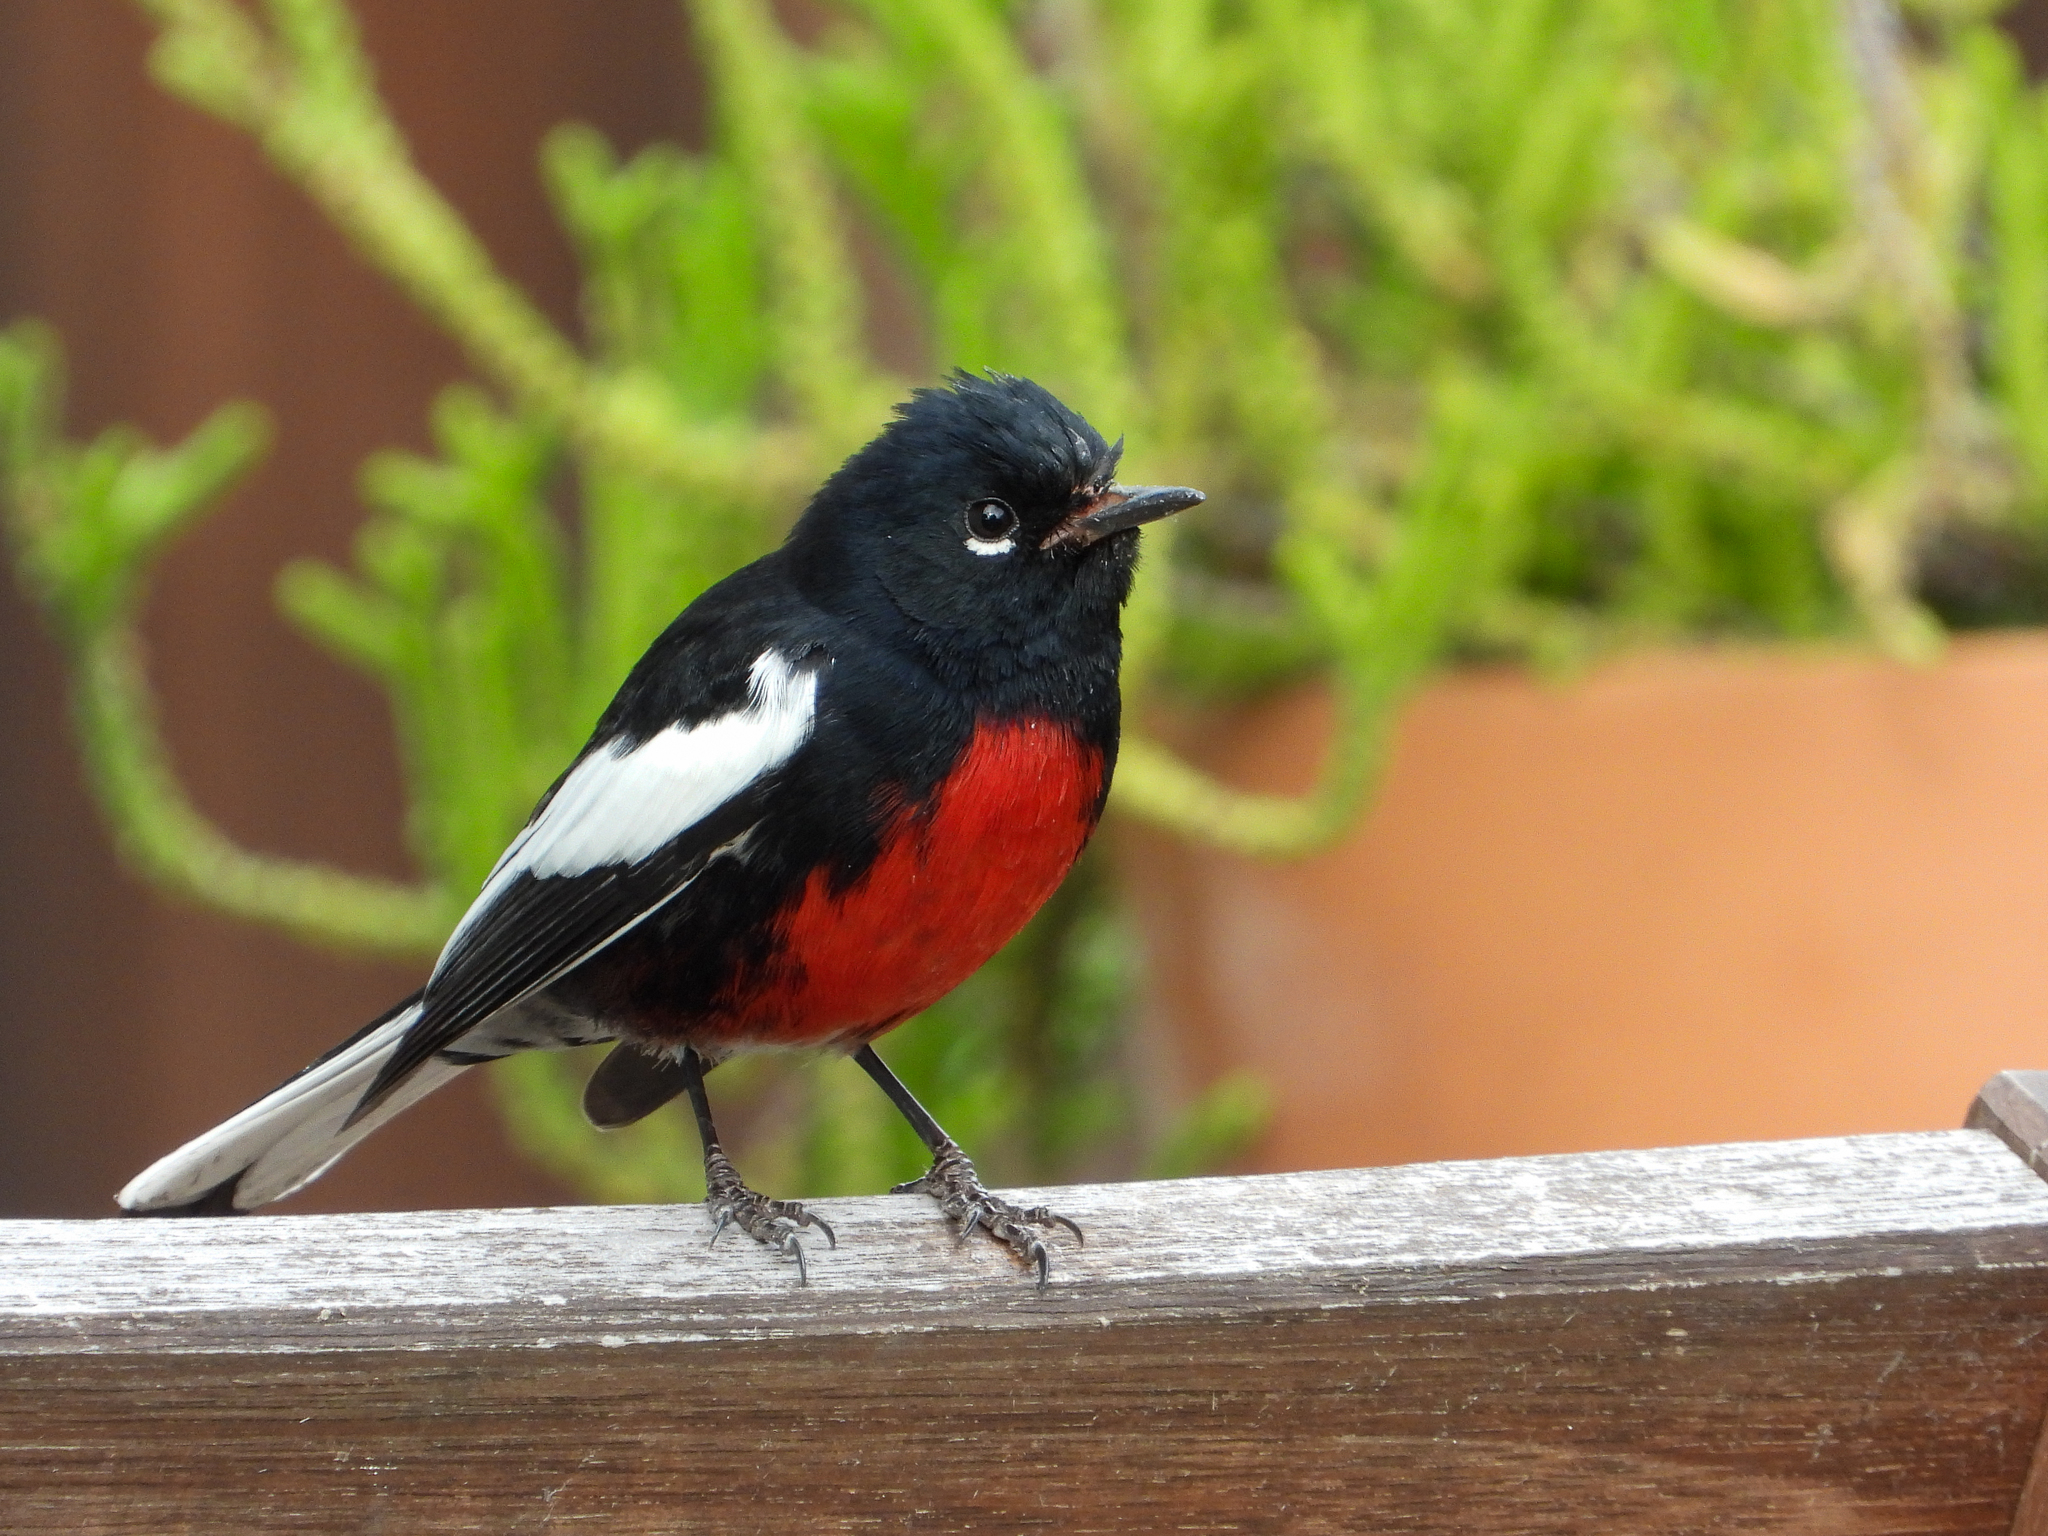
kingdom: Animalia
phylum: Chordata
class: Aves
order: Passeriformes
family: Parulidae
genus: Myioborus
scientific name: Myioborus pictus
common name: Painted whitestart
